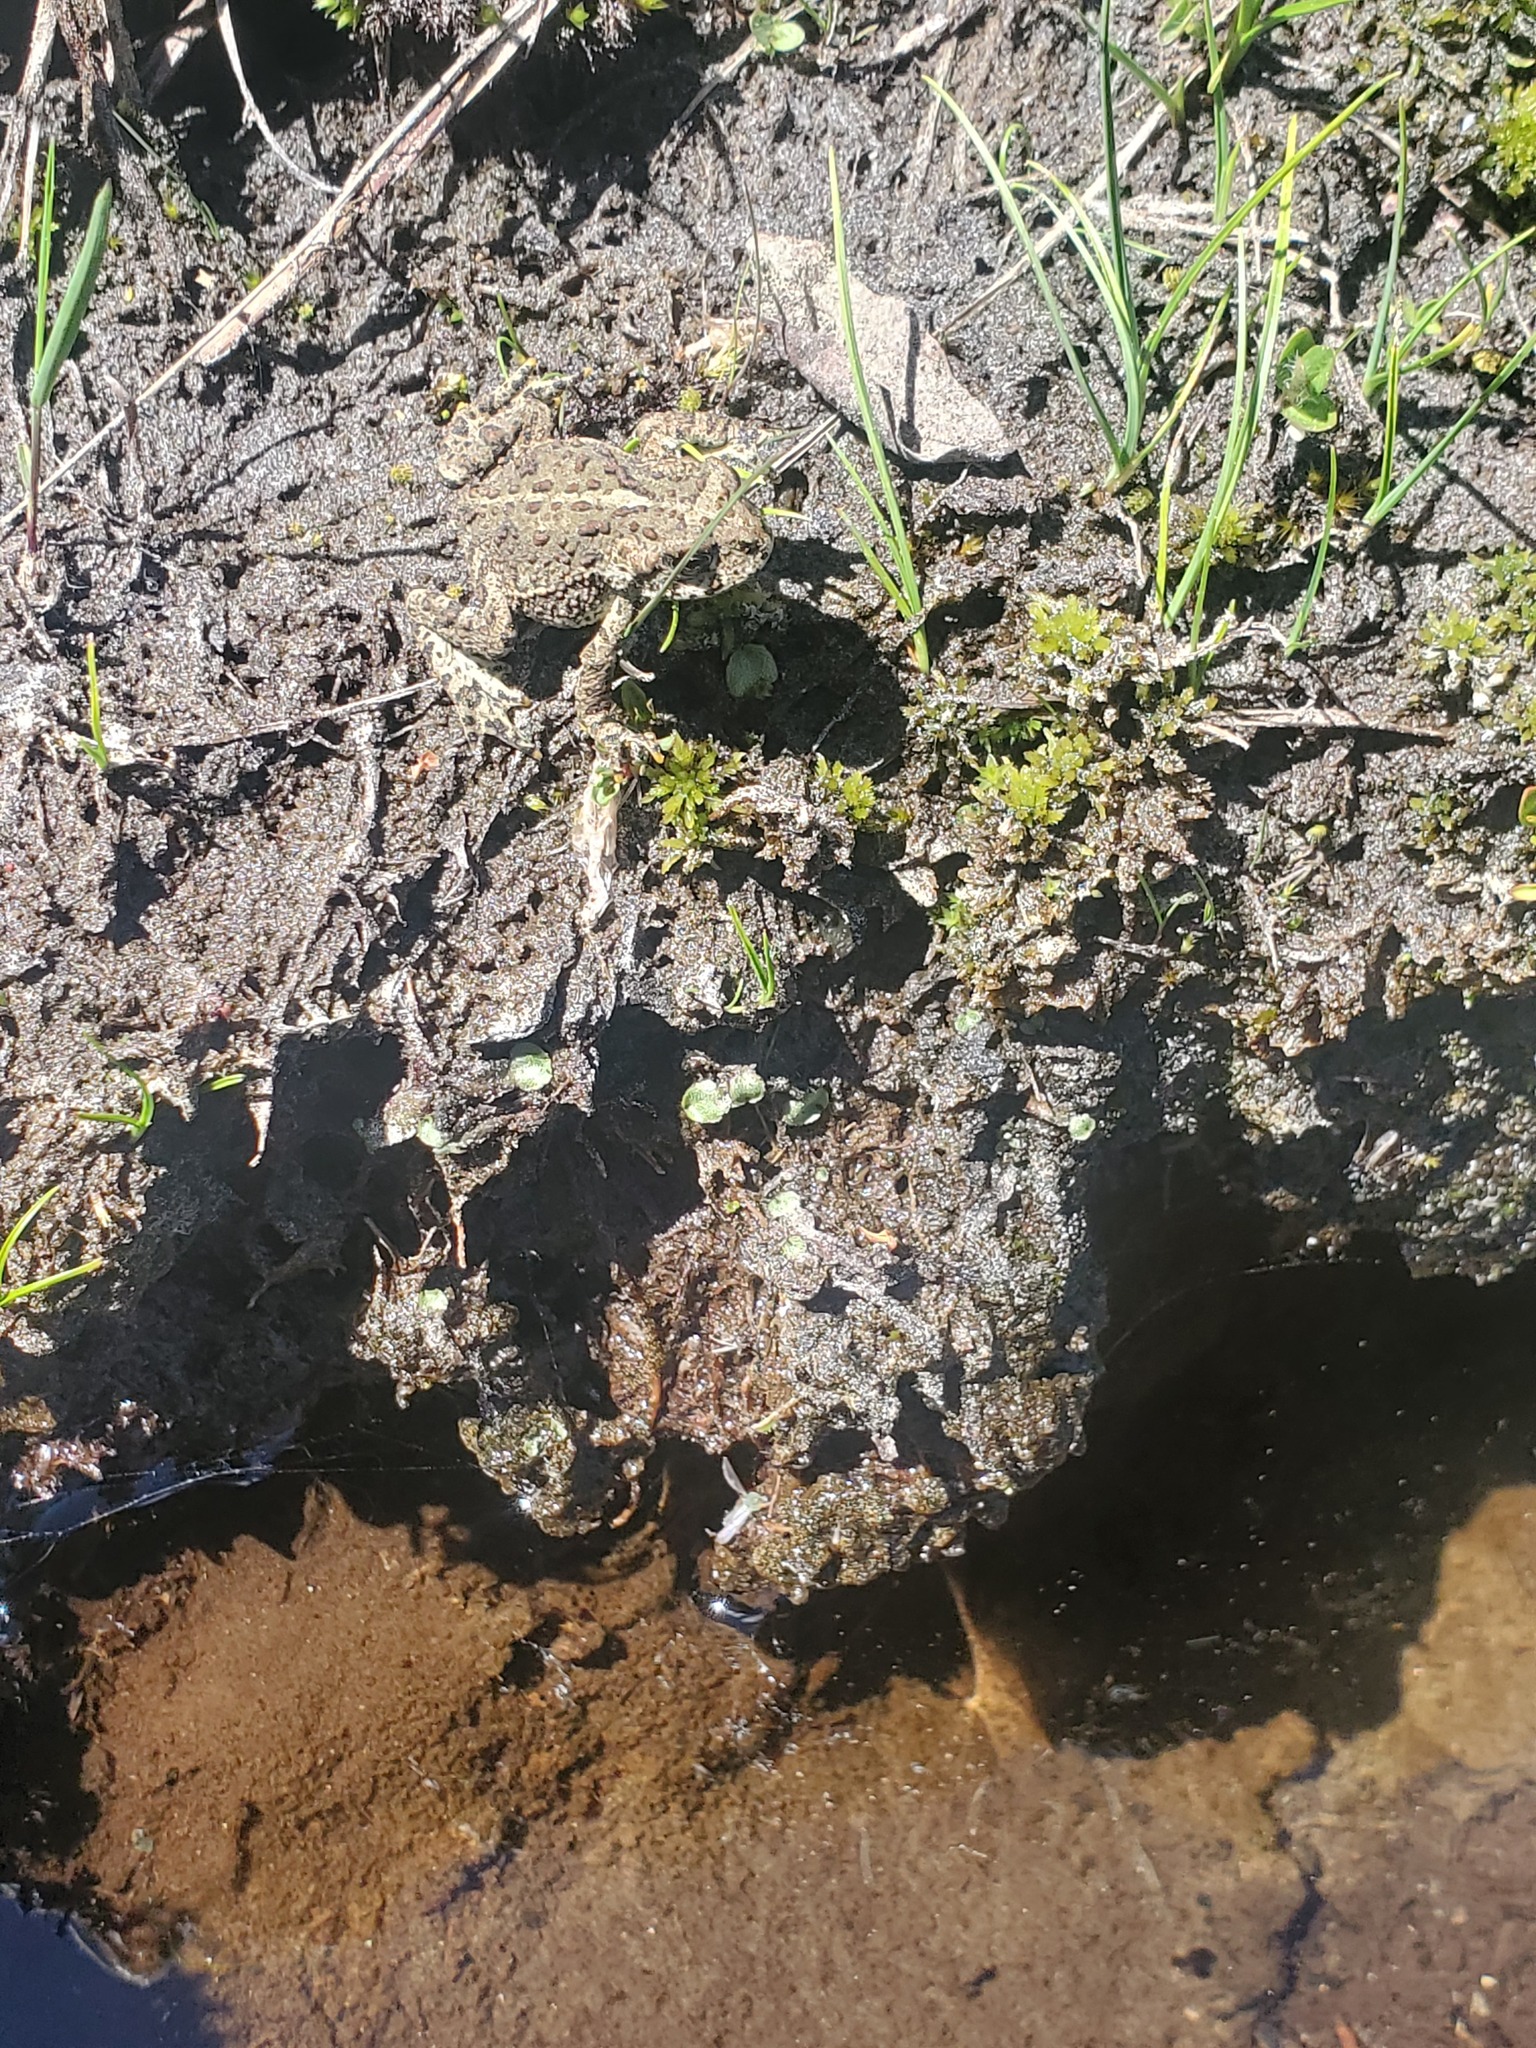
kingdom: Animalia
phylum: Chordata
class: Amphibia
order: Anura
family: Bufonidae
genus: Anaxyrus
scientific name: Anaxyrus boreas
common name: Western toad
